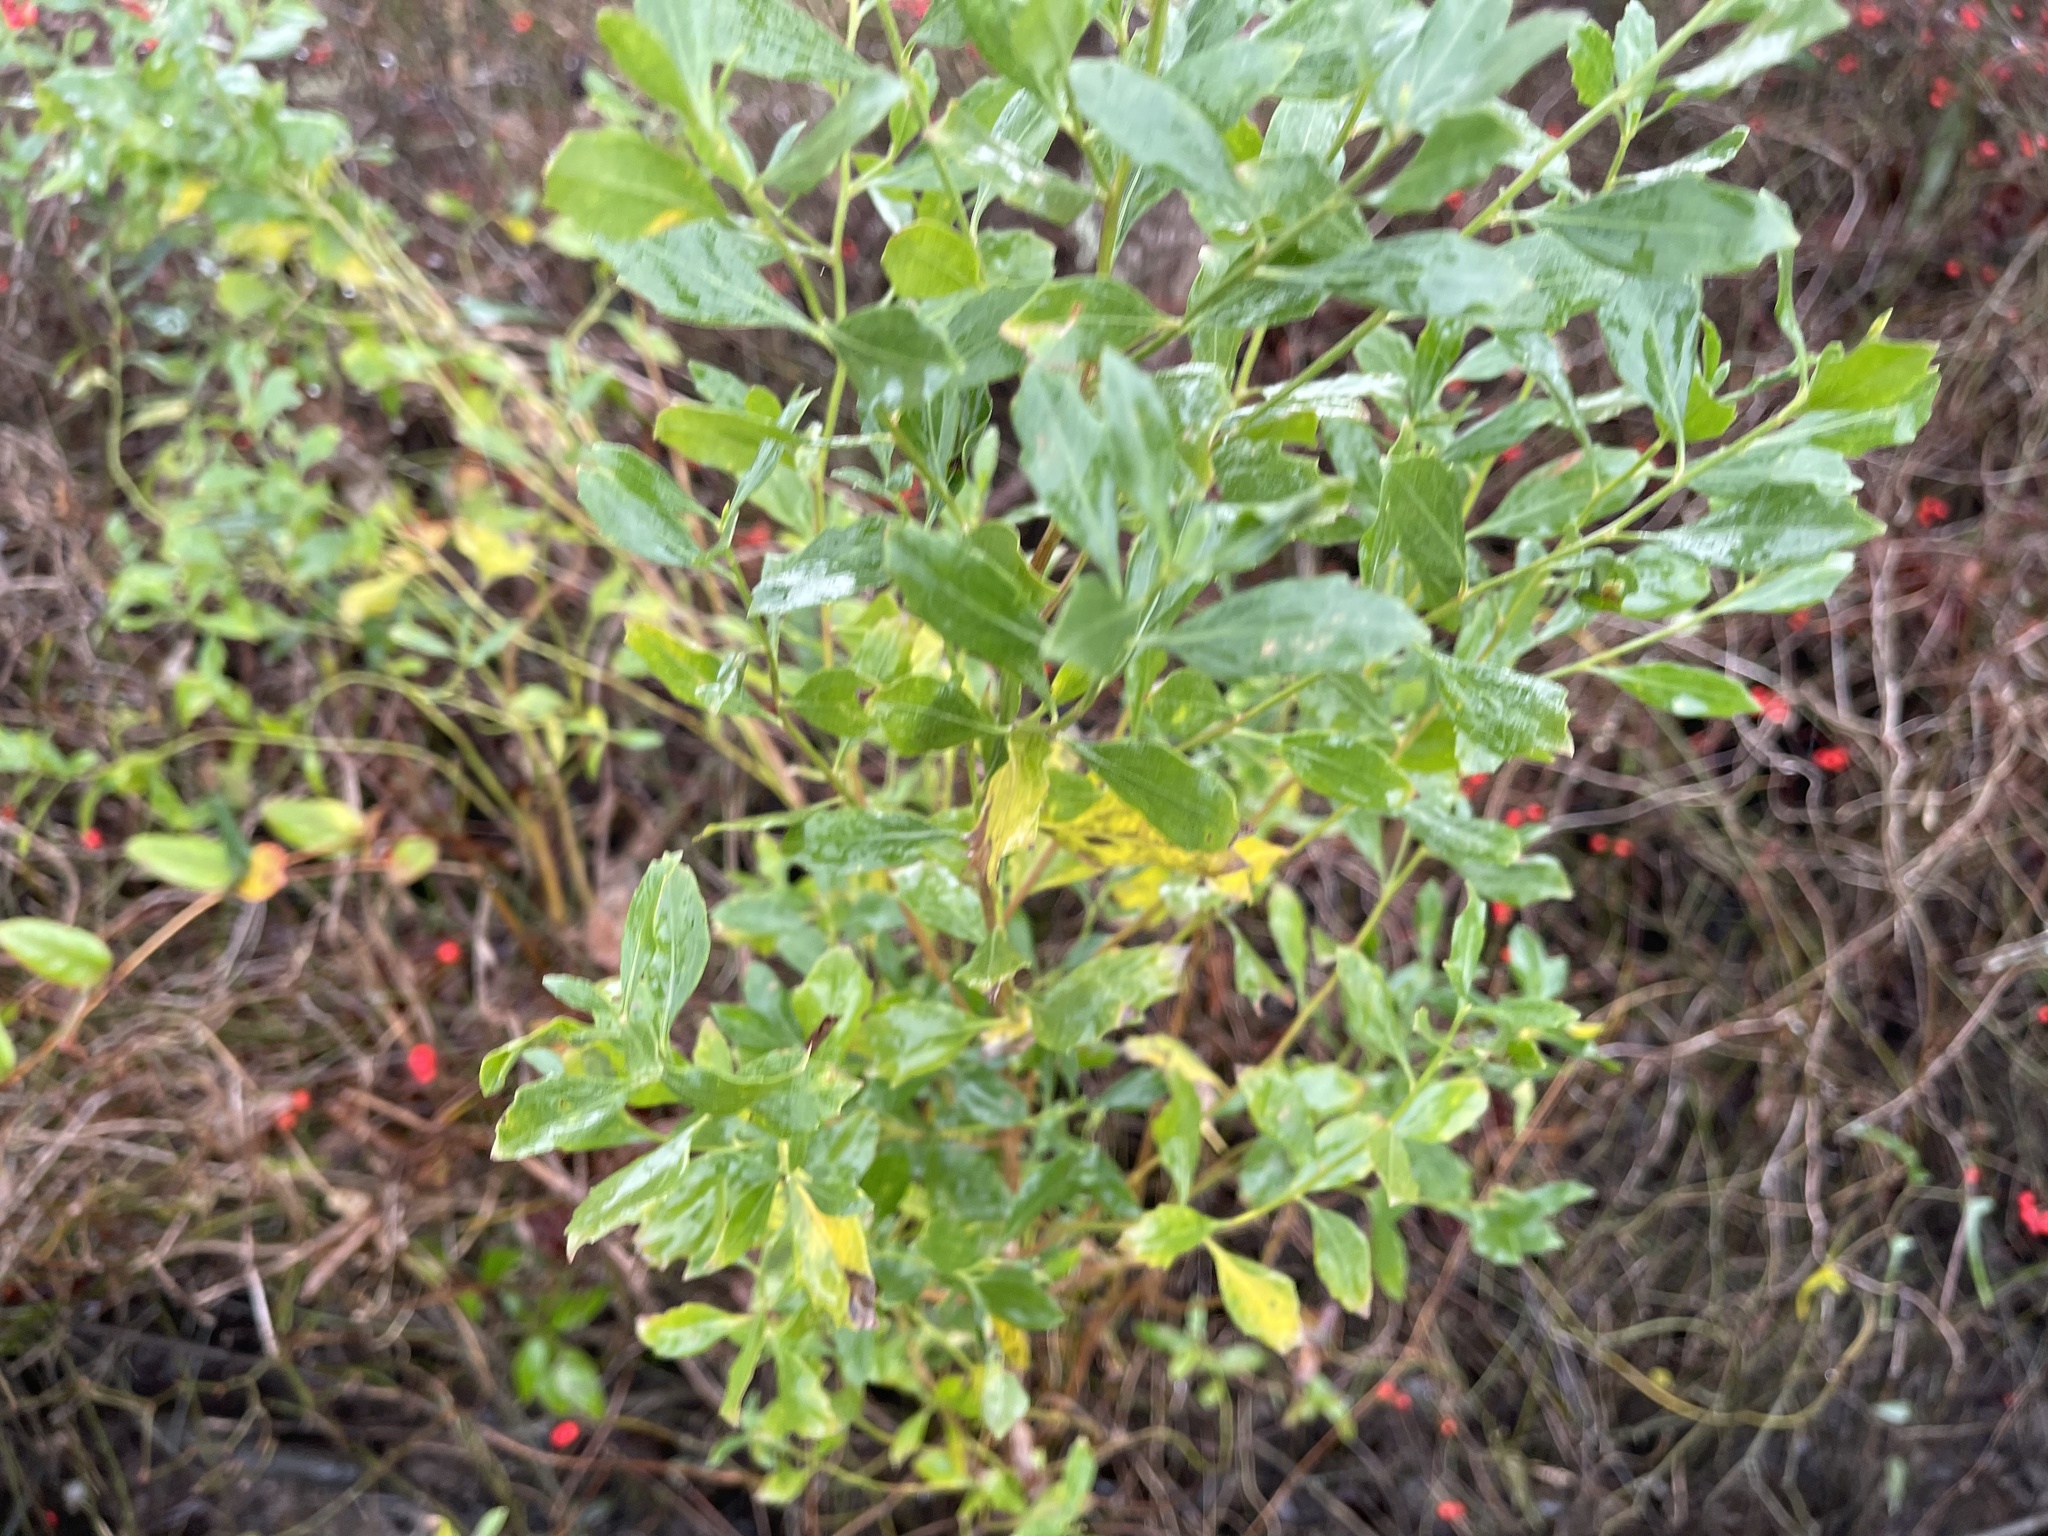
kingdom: Plantae
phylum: Tracheophyta
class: Magnoliopsida
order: Asterales
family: Asteraceae
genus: Baccharis
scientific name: Baccharis halimifolia
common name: Eastern baccharis
